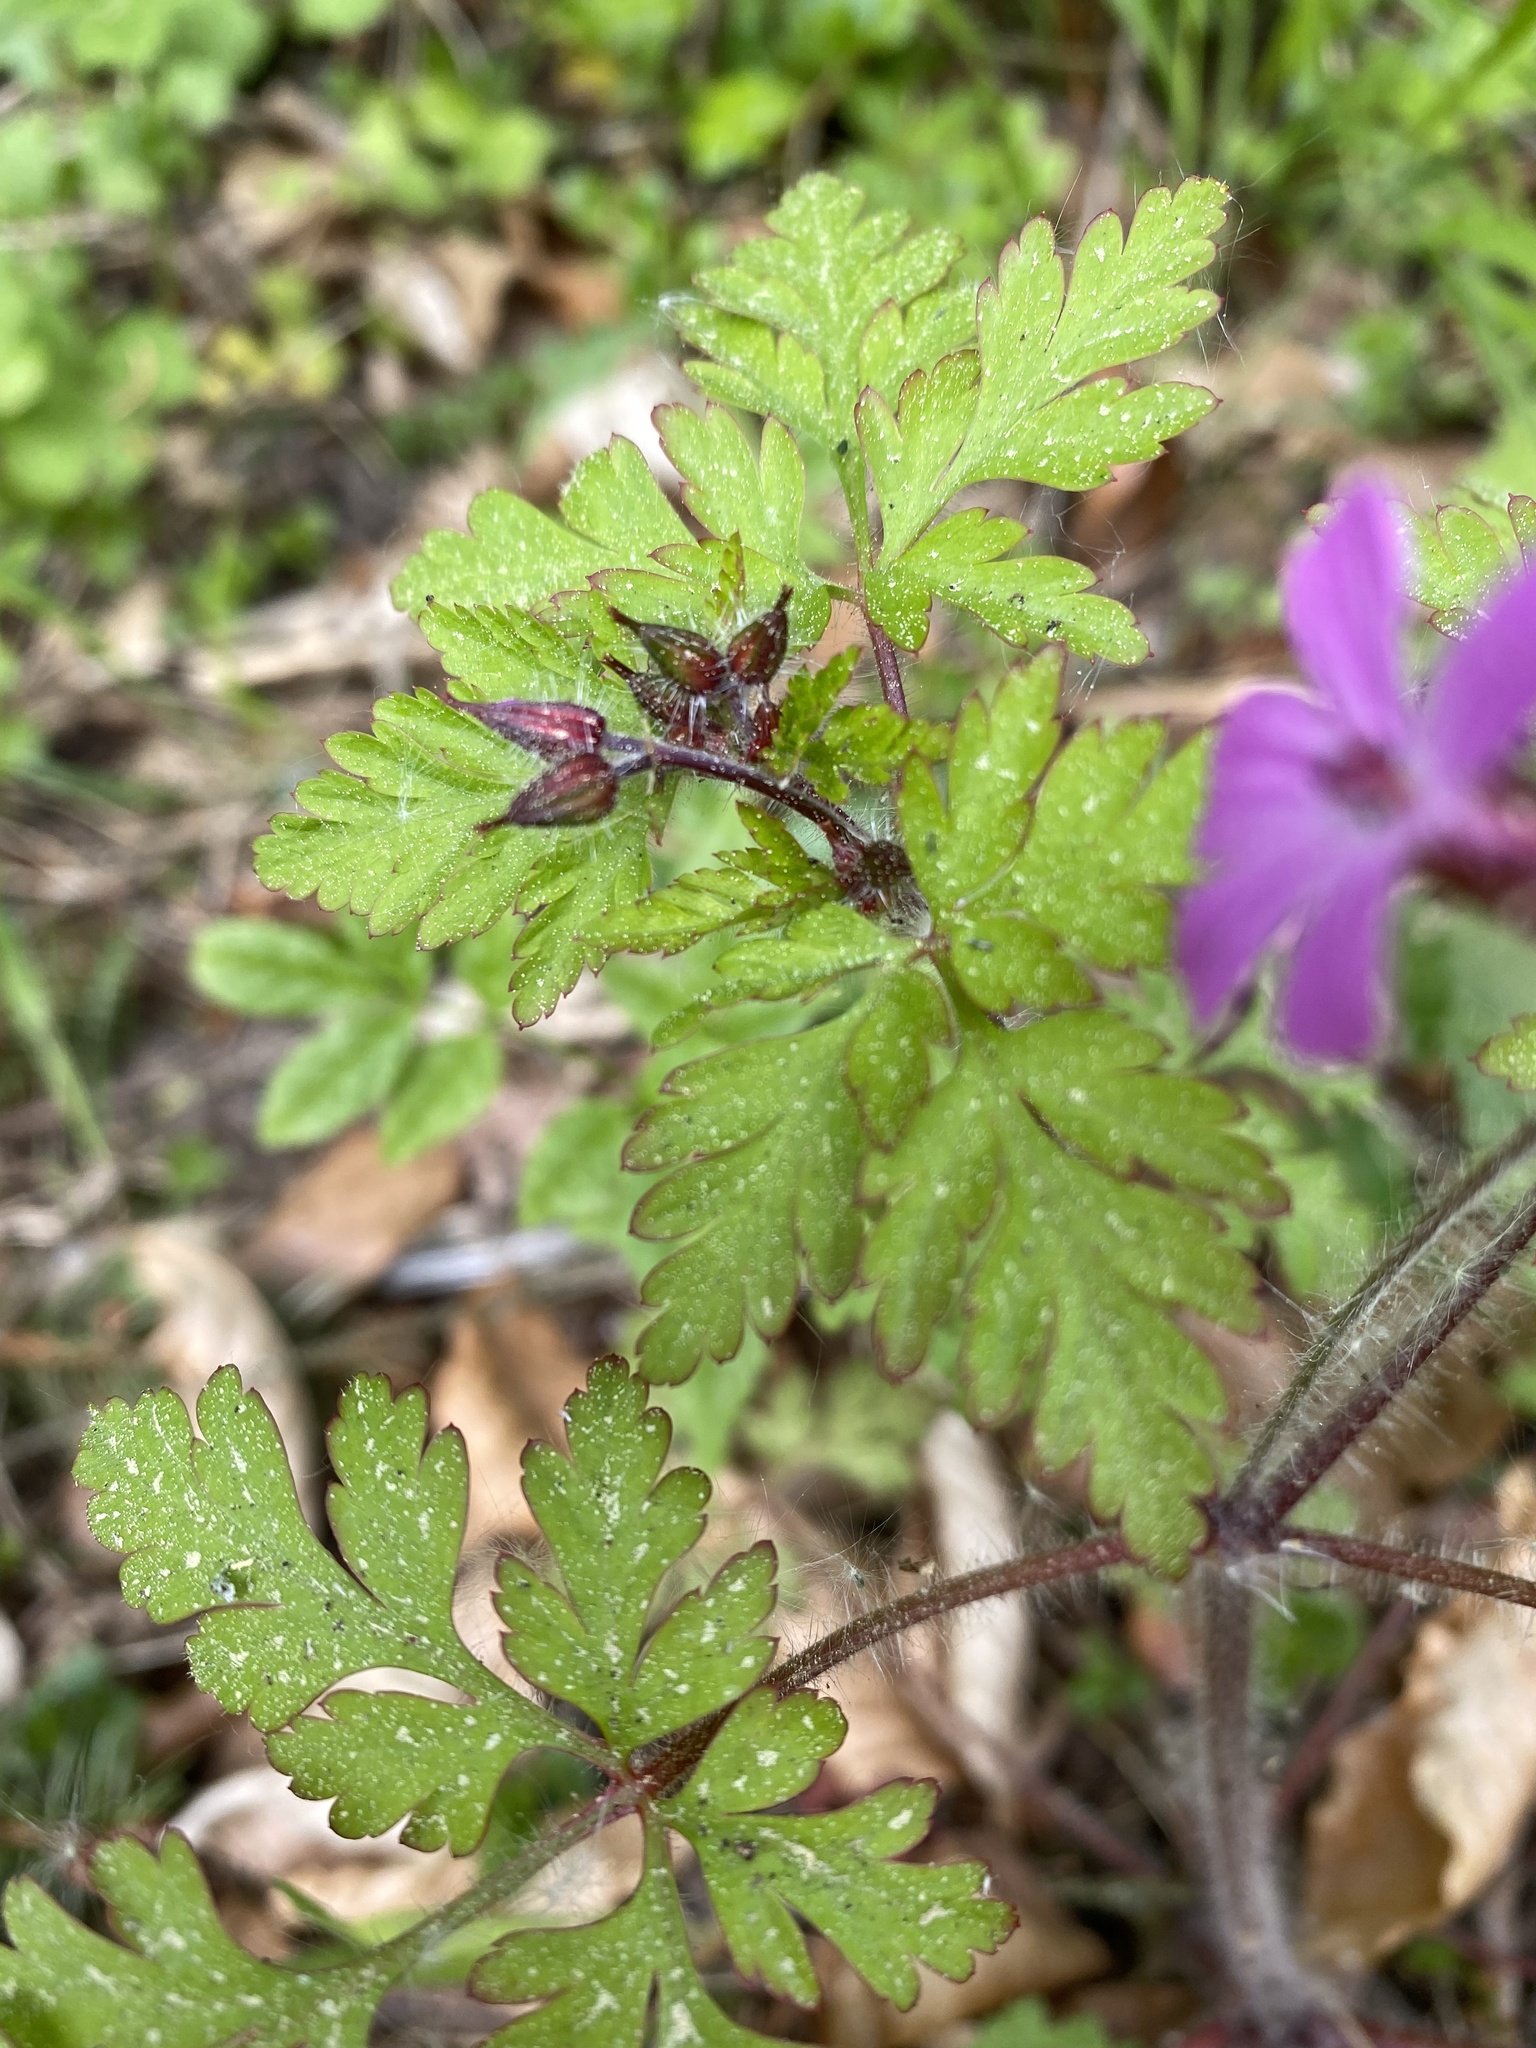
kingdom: Plantae
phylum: Tracheophyta
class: Magnoliopsida
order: Geraniales
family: Geraniaceae
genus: Geranium
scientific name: Geranium robertianum
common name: Herb-robert
